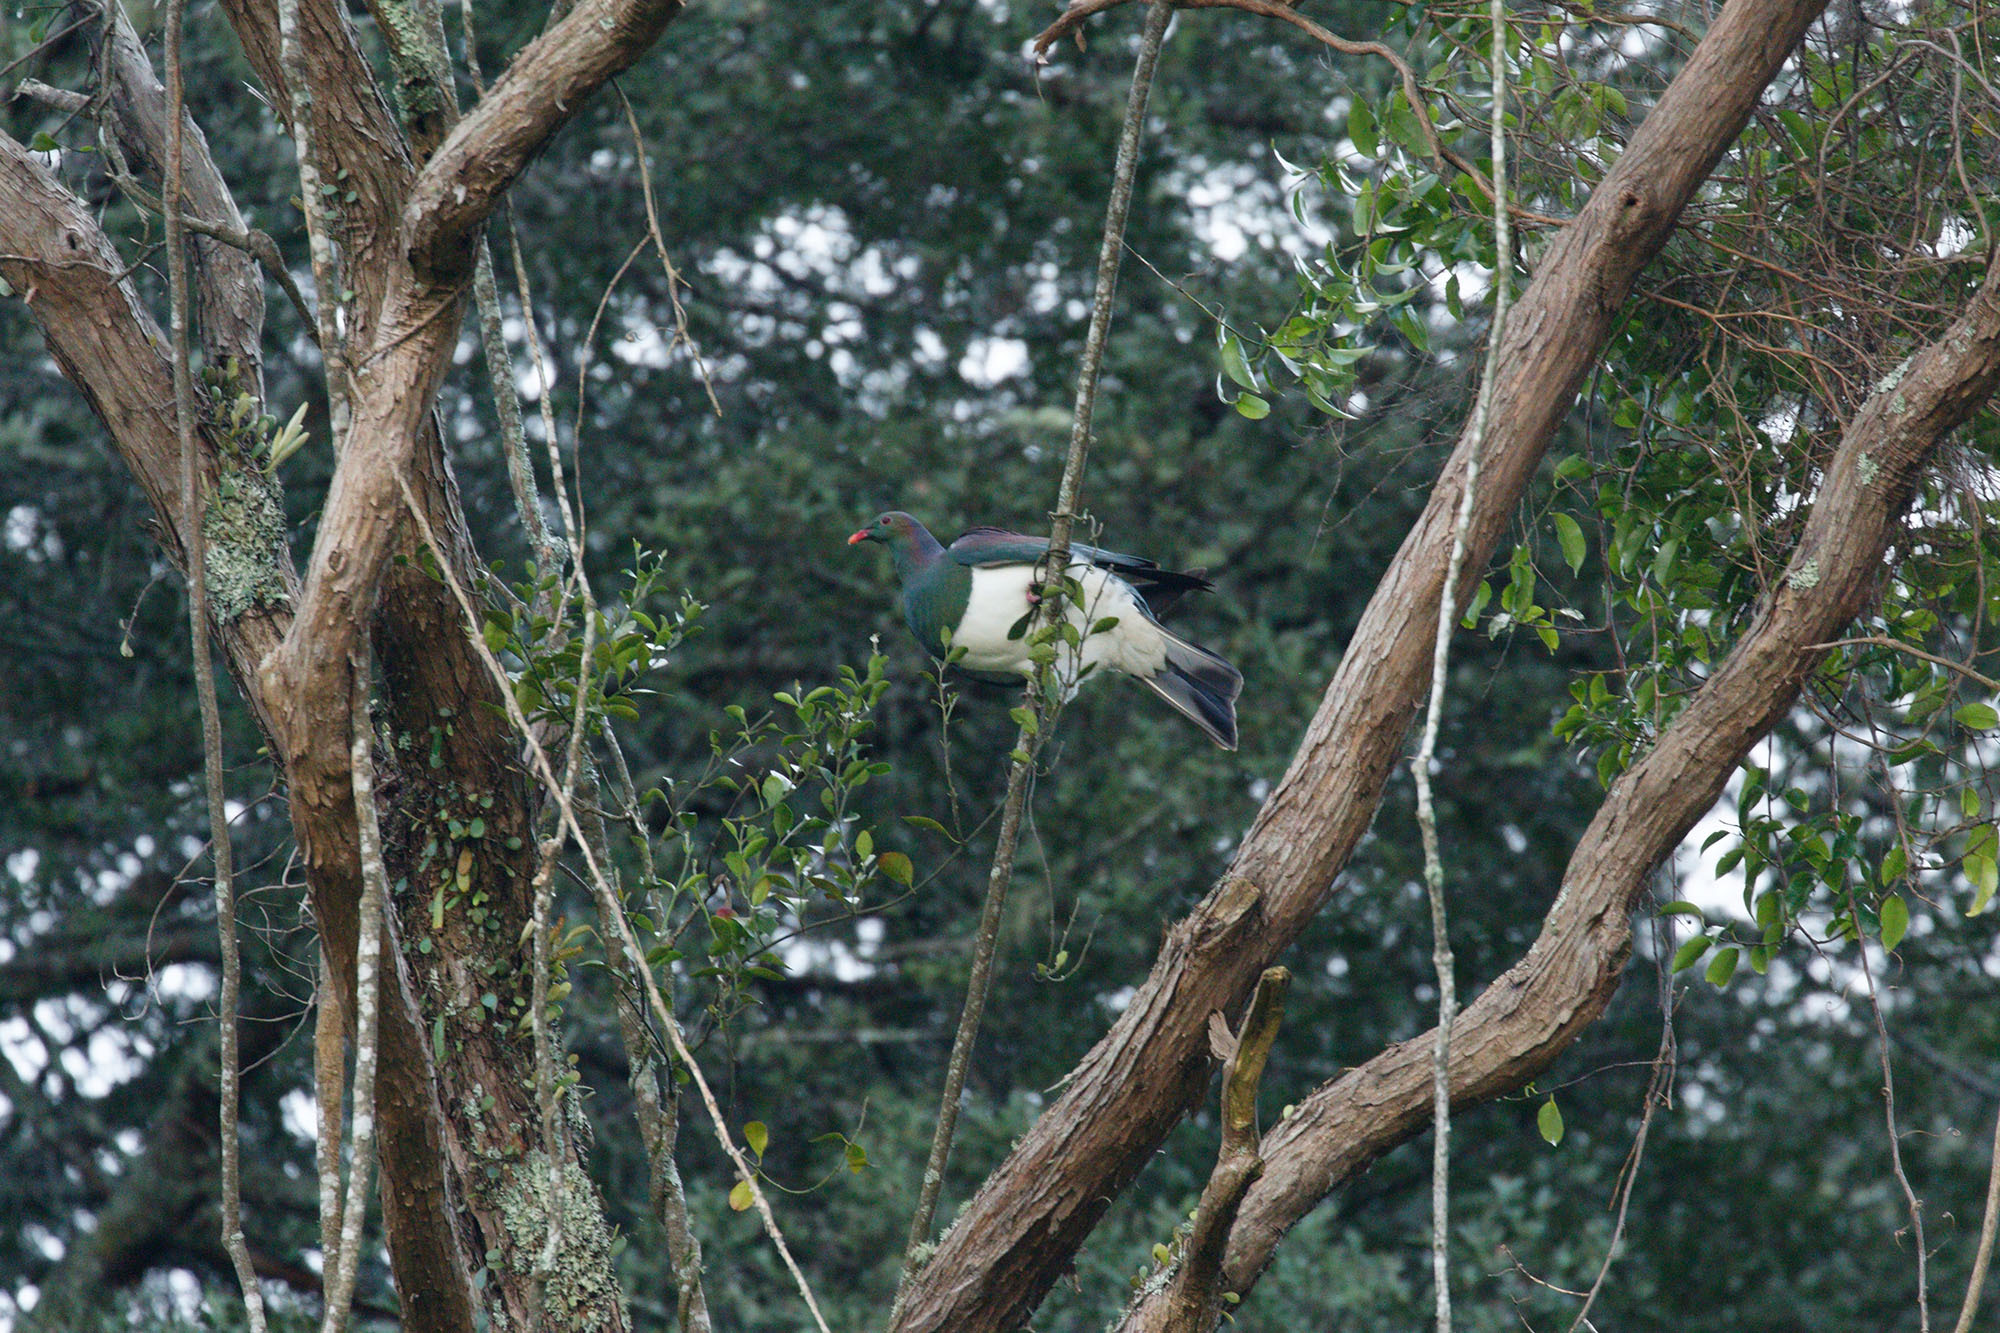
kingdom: Animalia
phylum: Chordata
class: Aves
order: Columbiformes
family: Columbidae
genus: Hemiphaga
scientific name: Hemiphaga novaeseelandiae
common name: New zealand pigeon
